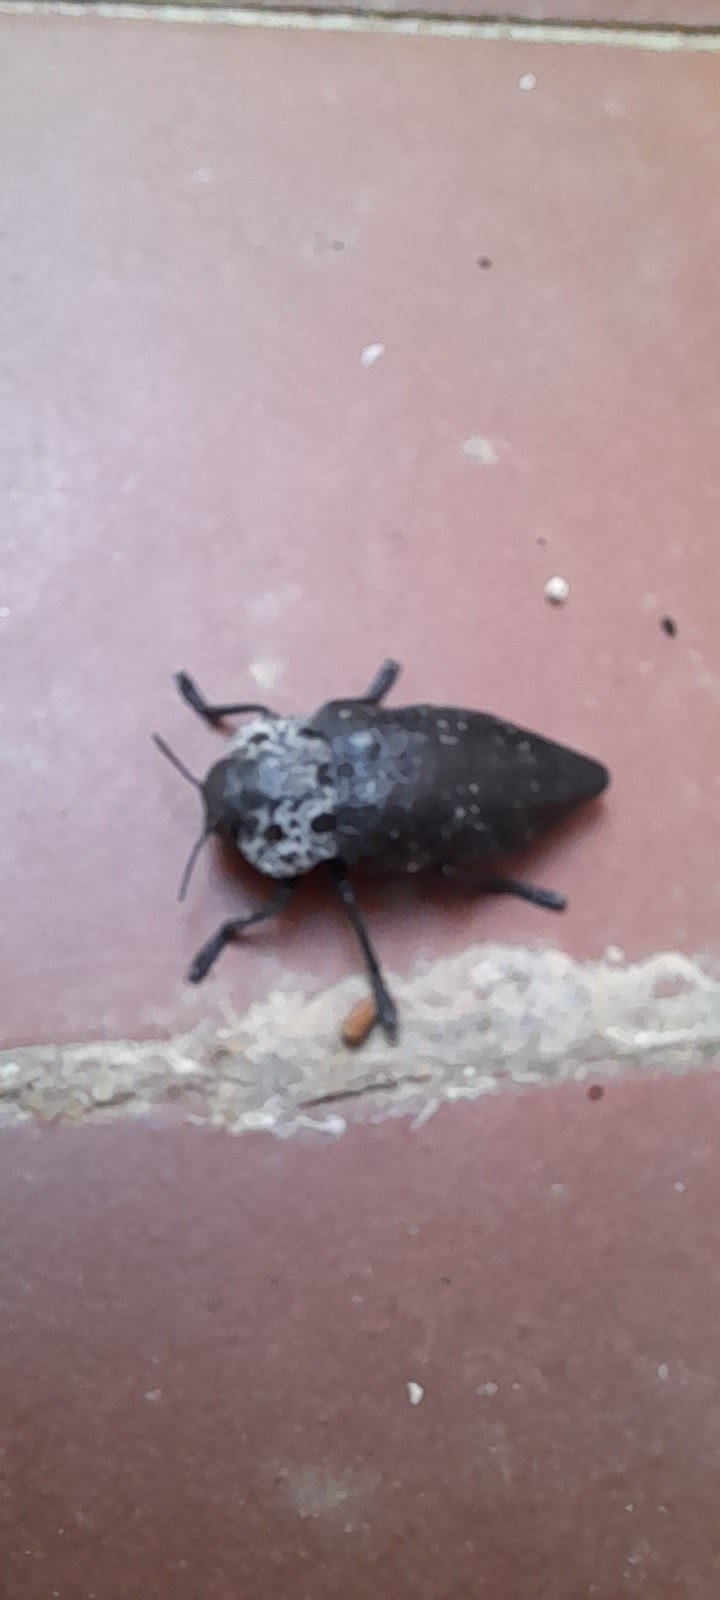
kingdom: Animalia
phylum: Arthropoda
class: Insecta
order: Coleoptera
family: Buprestidae
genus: Capnodis
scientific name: Capnodis tenebrionis
